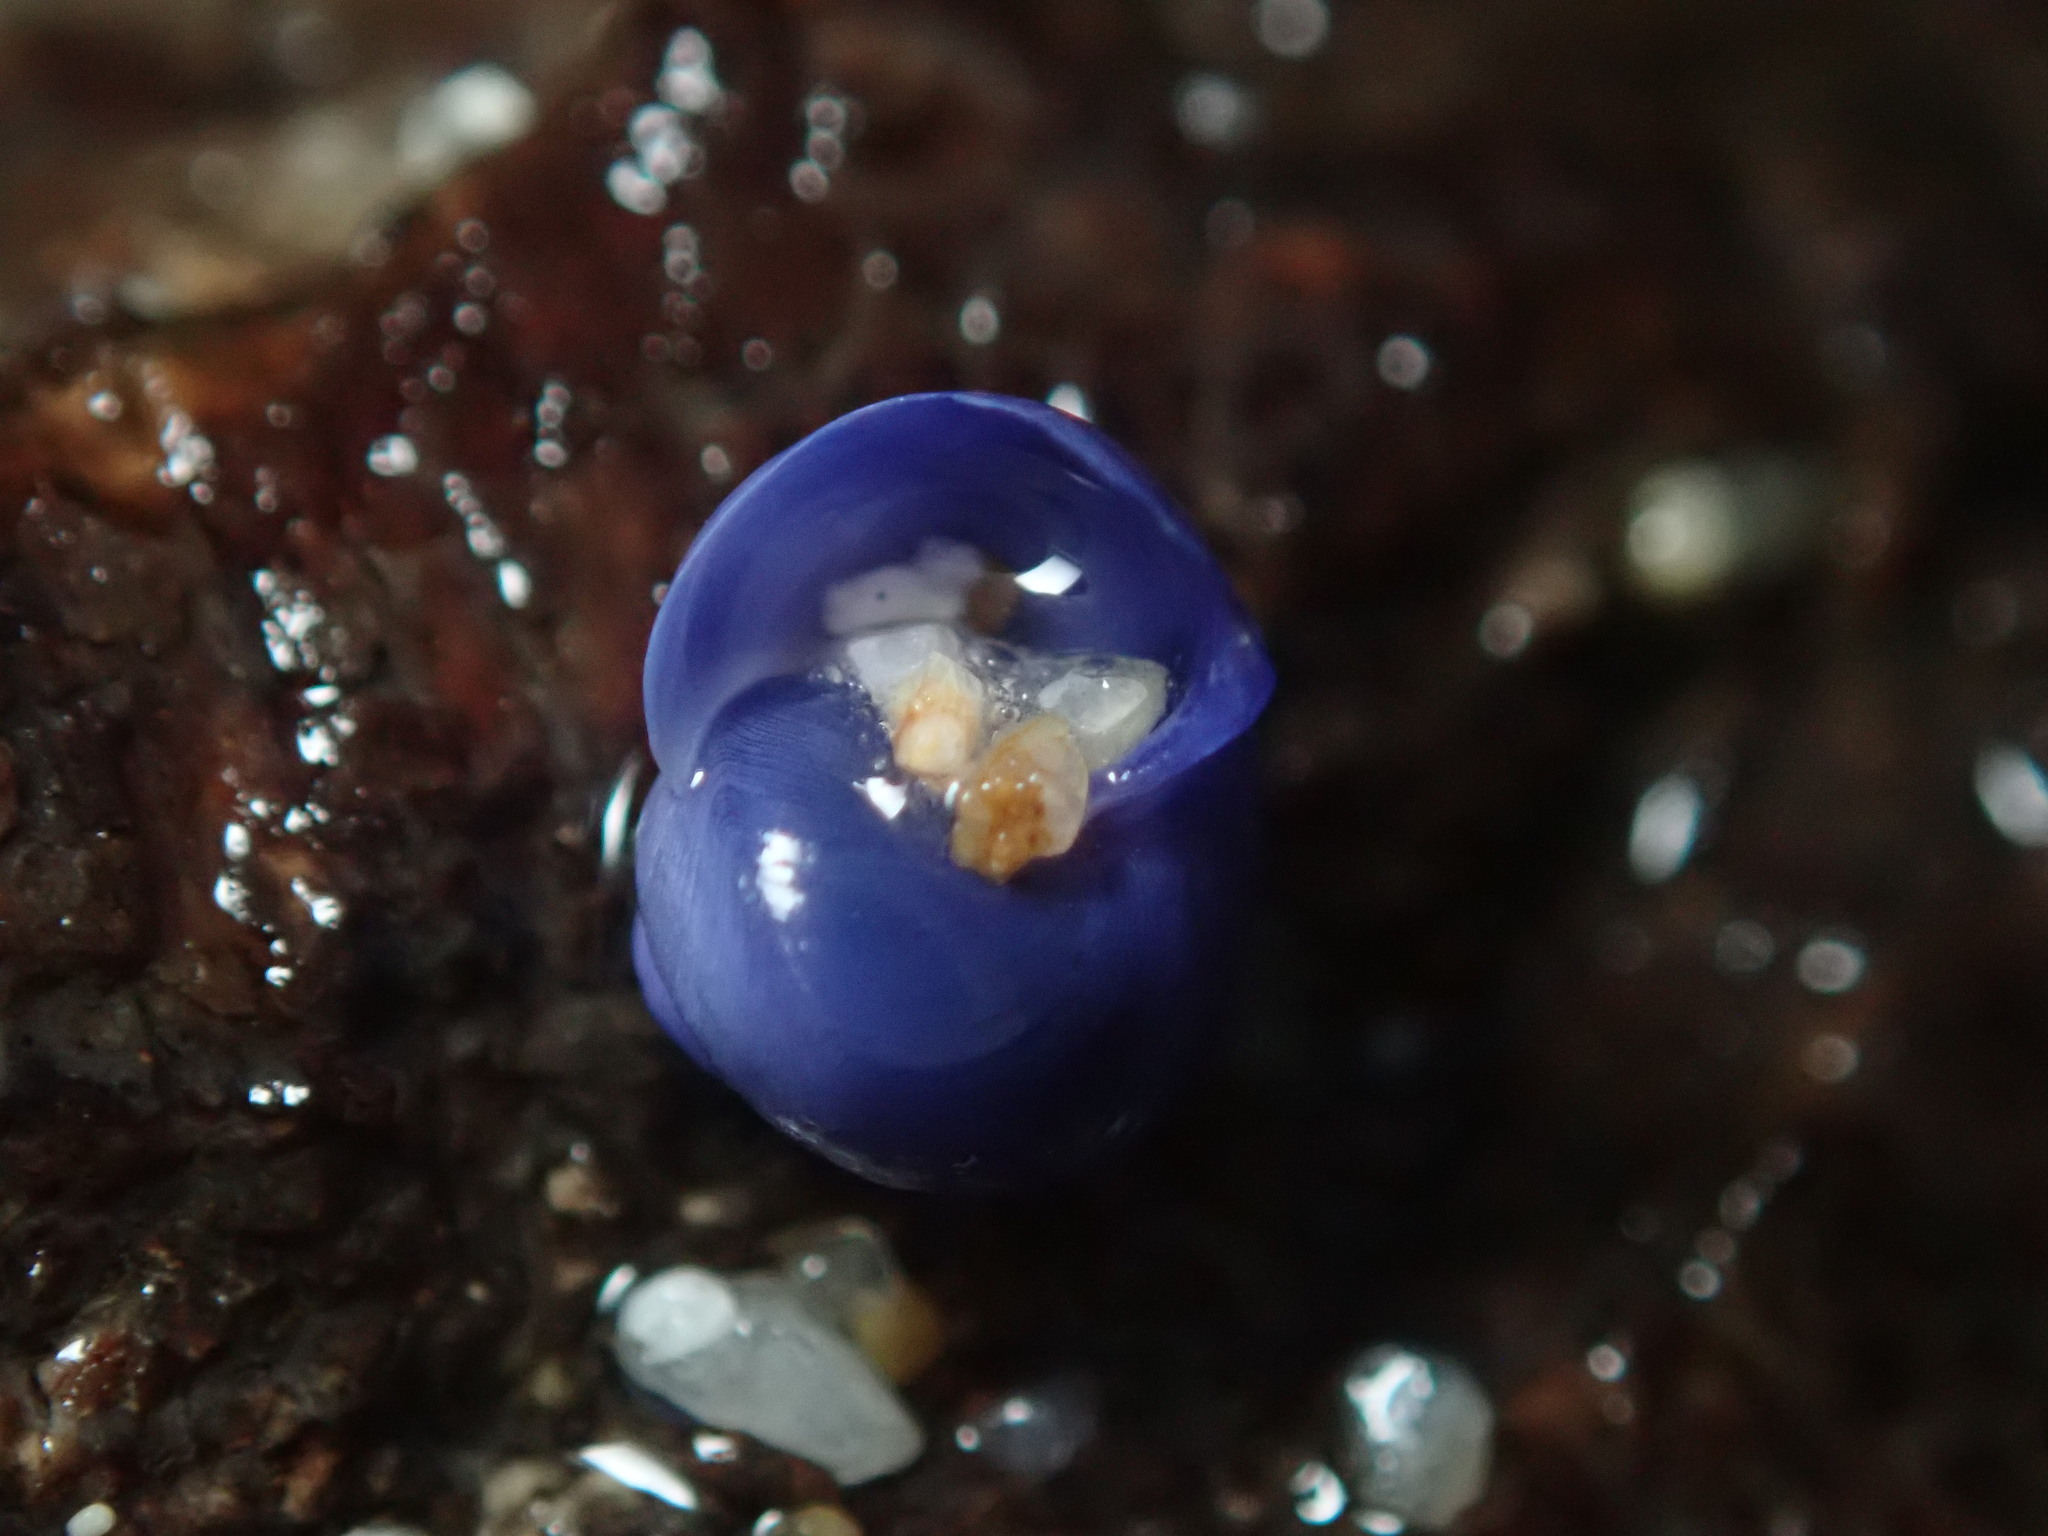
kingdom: Animalia
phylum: Mollusca
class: Gastropoda
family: Epitoniidae
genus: Janthina
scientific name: Janthina umbilicata
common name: Elongate janthina
